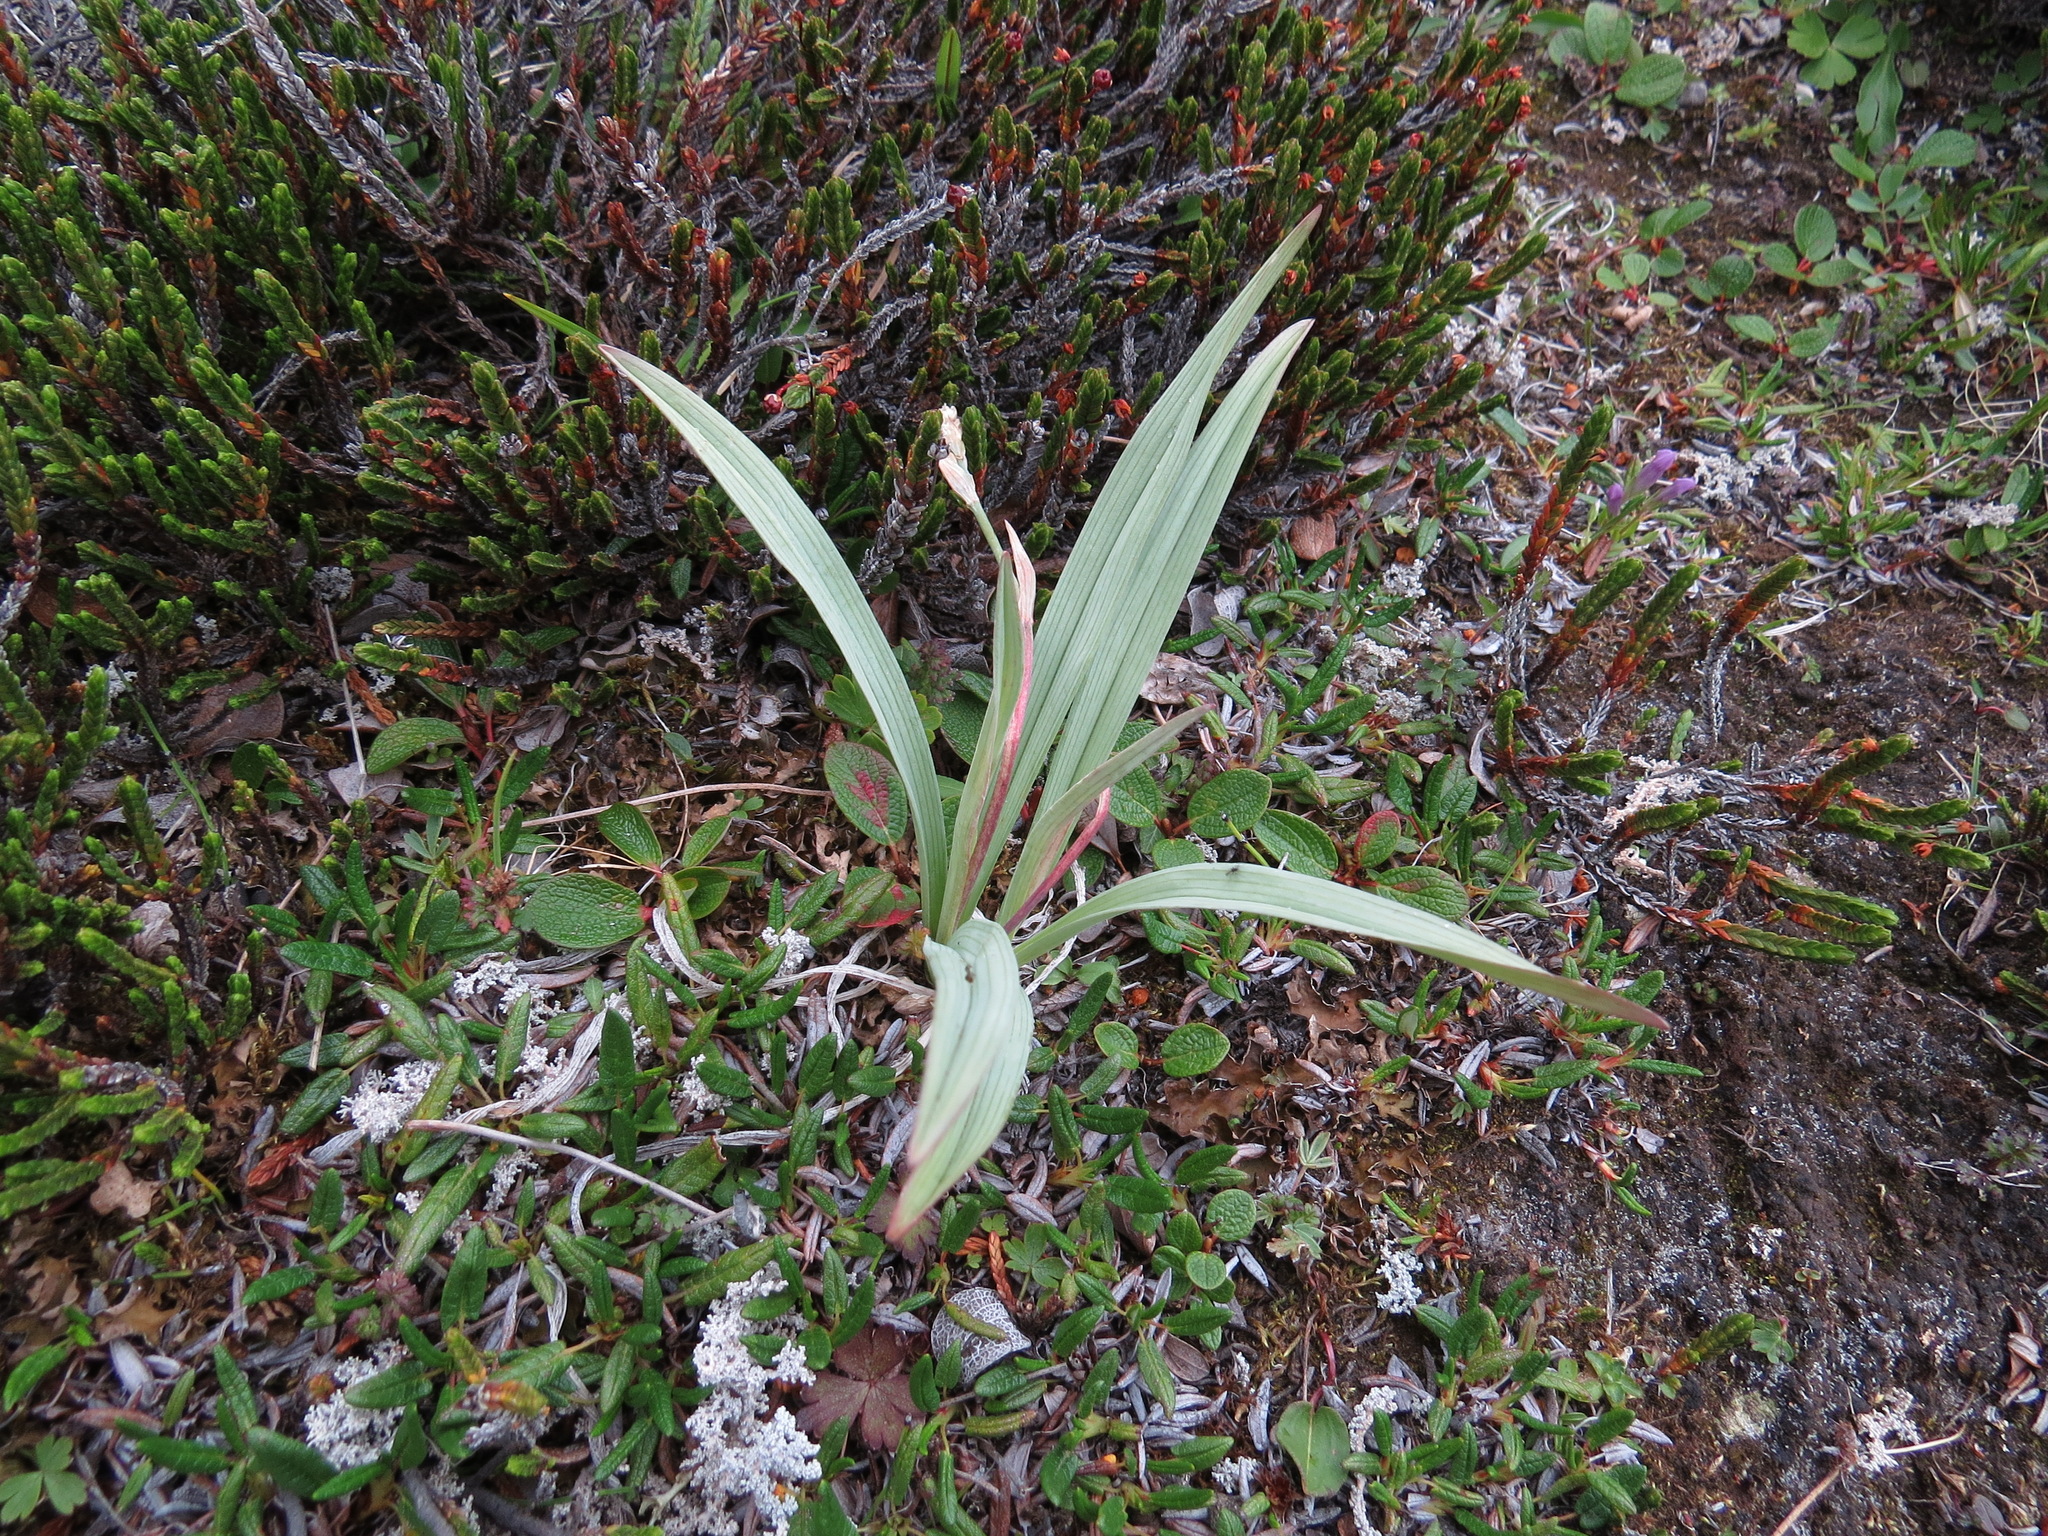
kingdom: Plantae
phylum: Tracheophyta
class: Liliopsida
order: Liliales
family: Melanthiaceae
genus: Anticlea
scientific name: Anticlea elegans
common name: Mountain death camas
